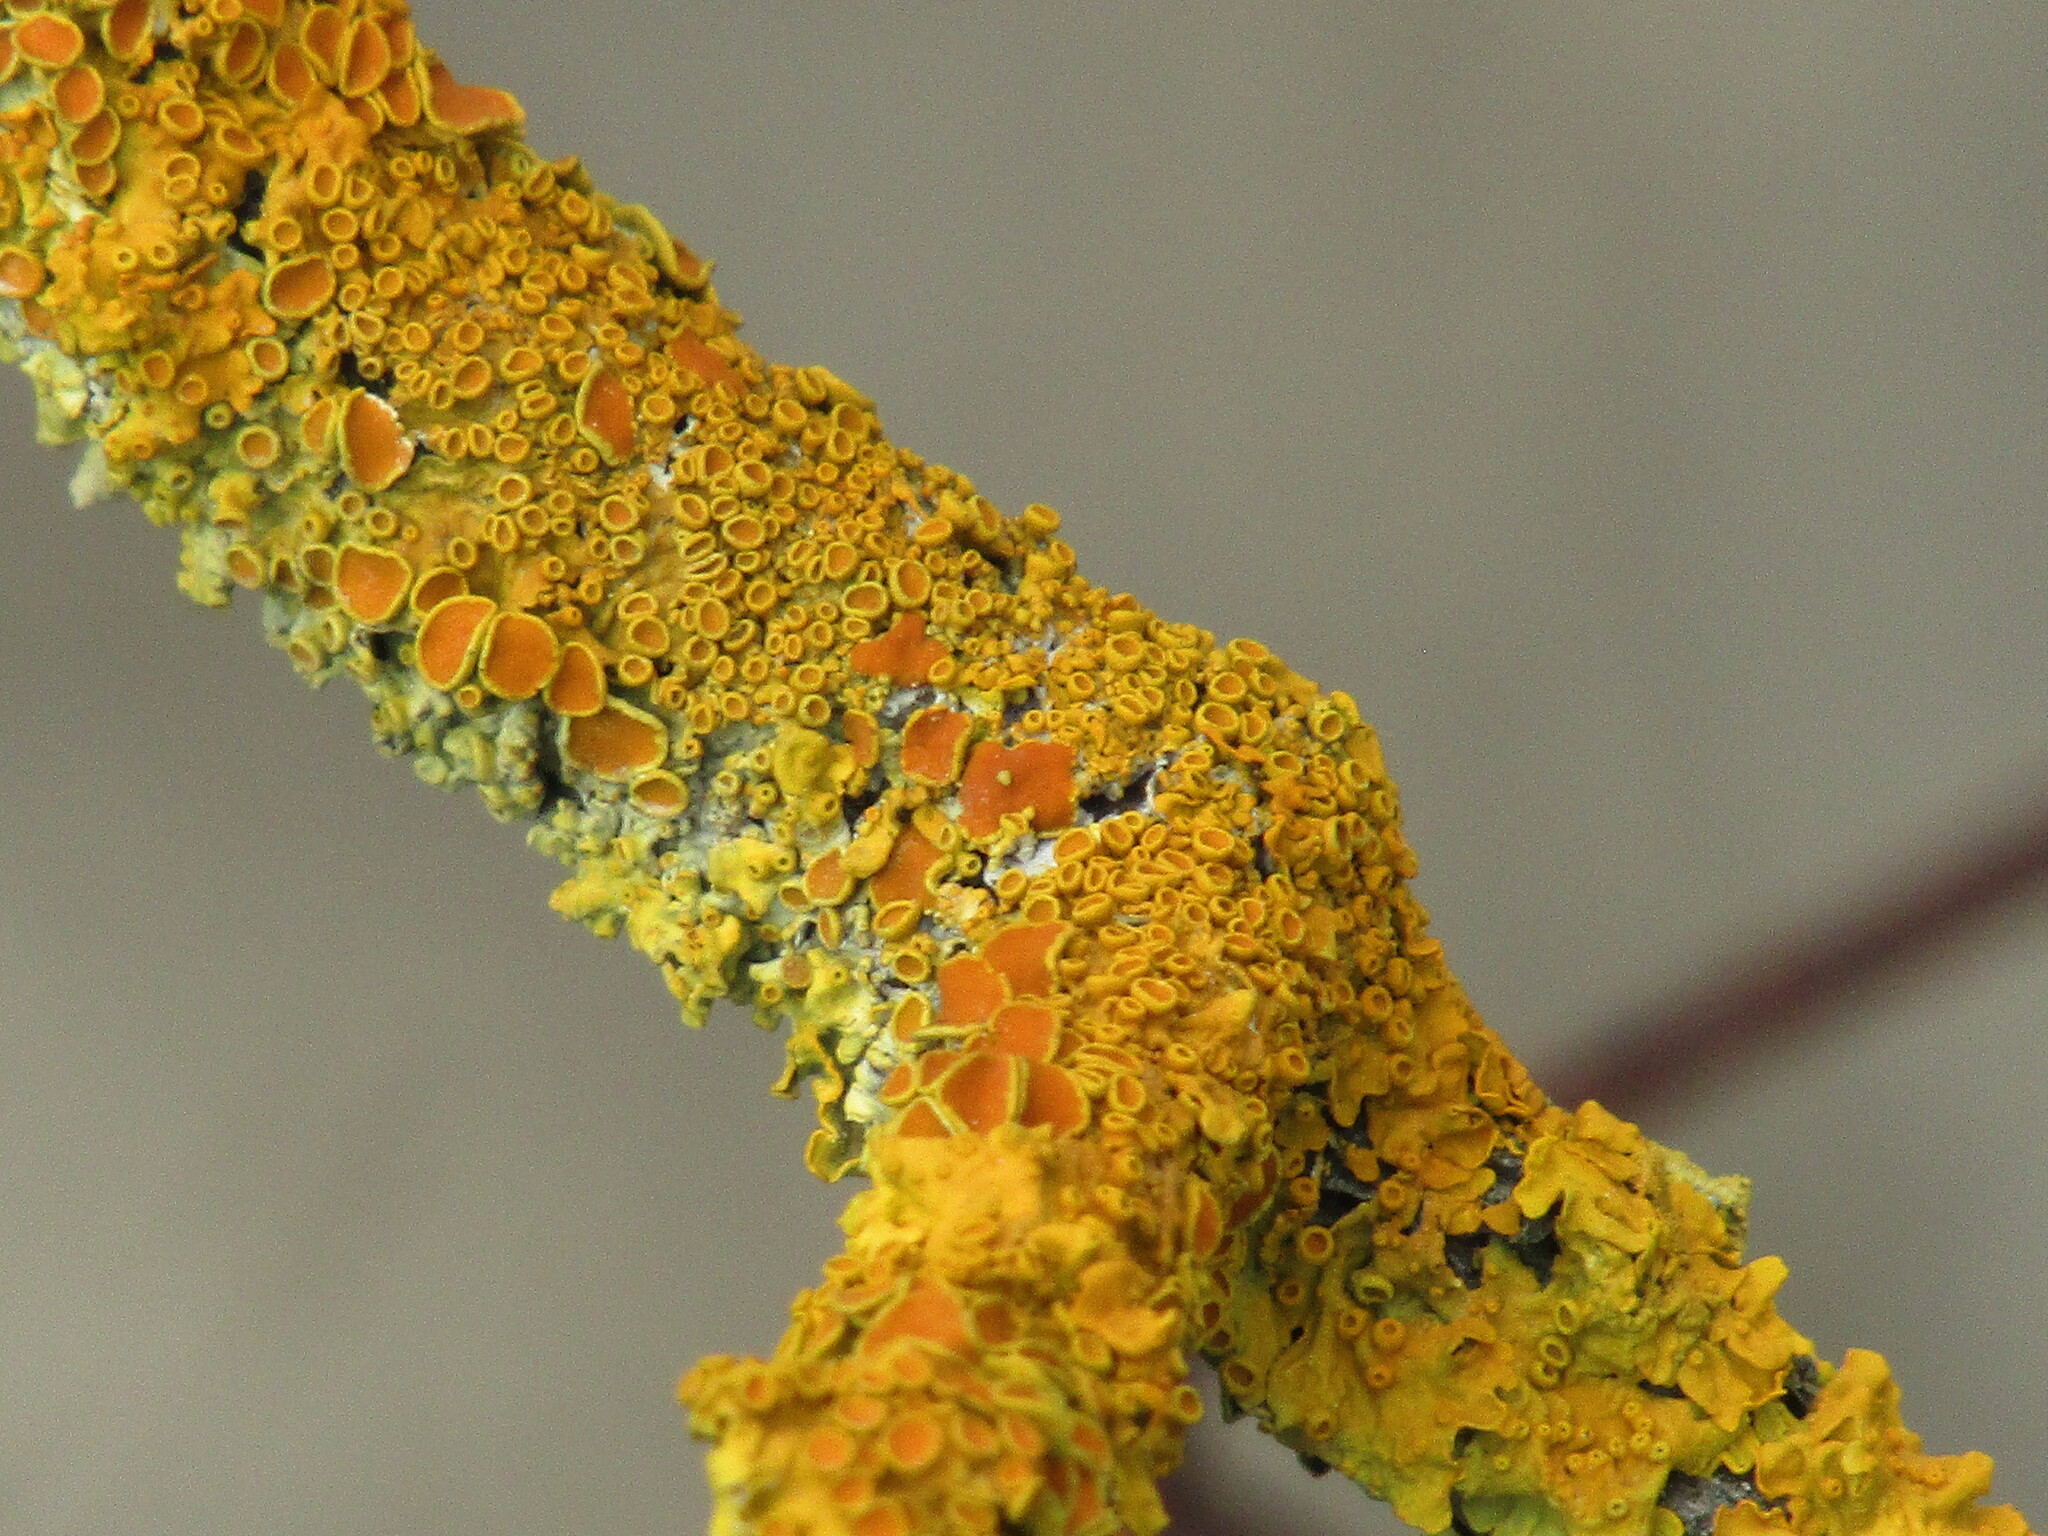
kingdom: Fungi
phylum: Ascomycota
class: Lecanoromycetes
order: Teloschistales
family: Teloschistaceae
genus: Xanthoria
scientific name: Xanthoria parietina
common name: Common orange lichen
